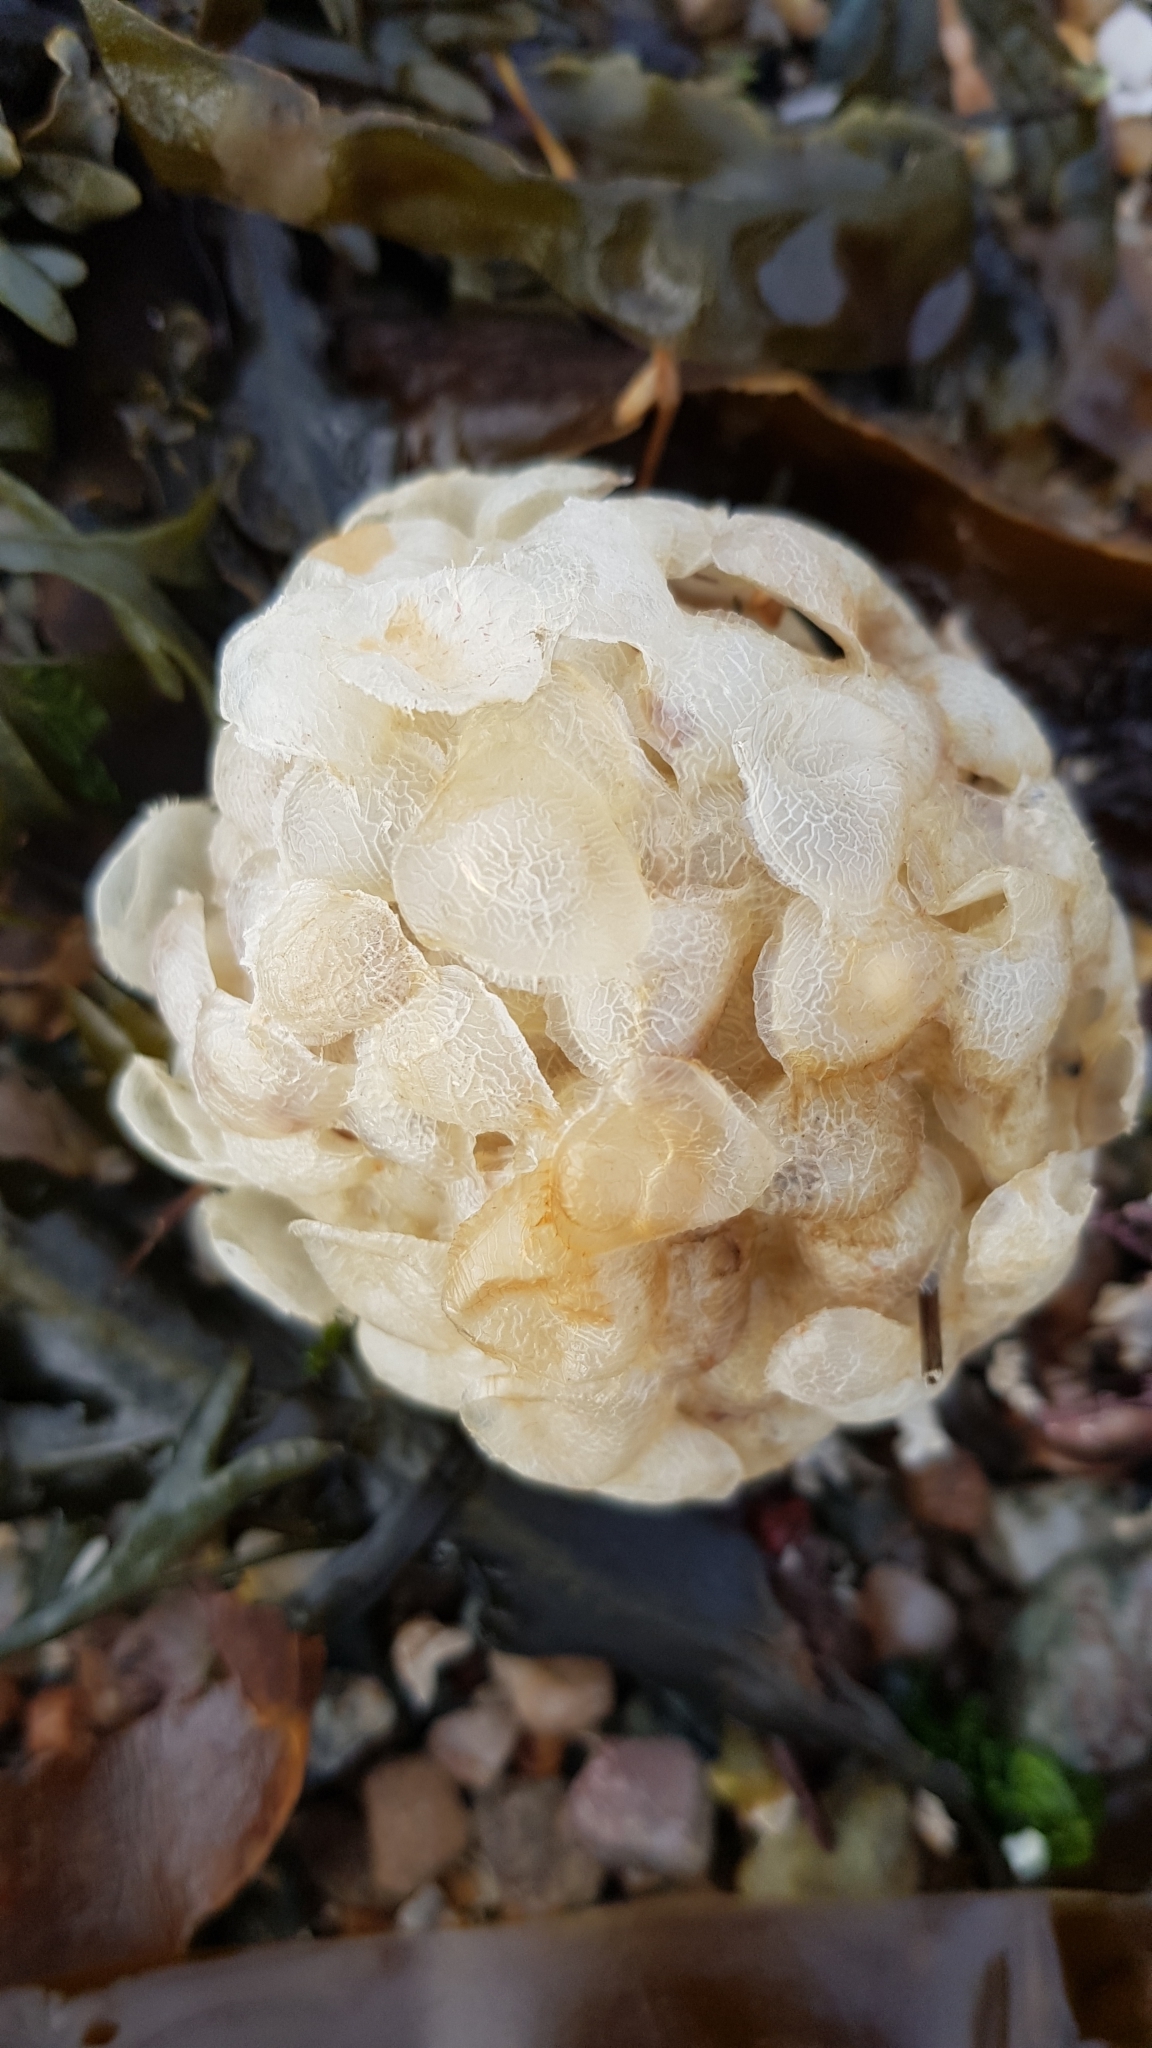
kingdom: Animalia
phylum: Mollusca
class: Gastropoda
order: Neogastropoda
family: Buccinidae
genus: Buccinum
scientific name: Buccinum undatum
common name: Common whelk
